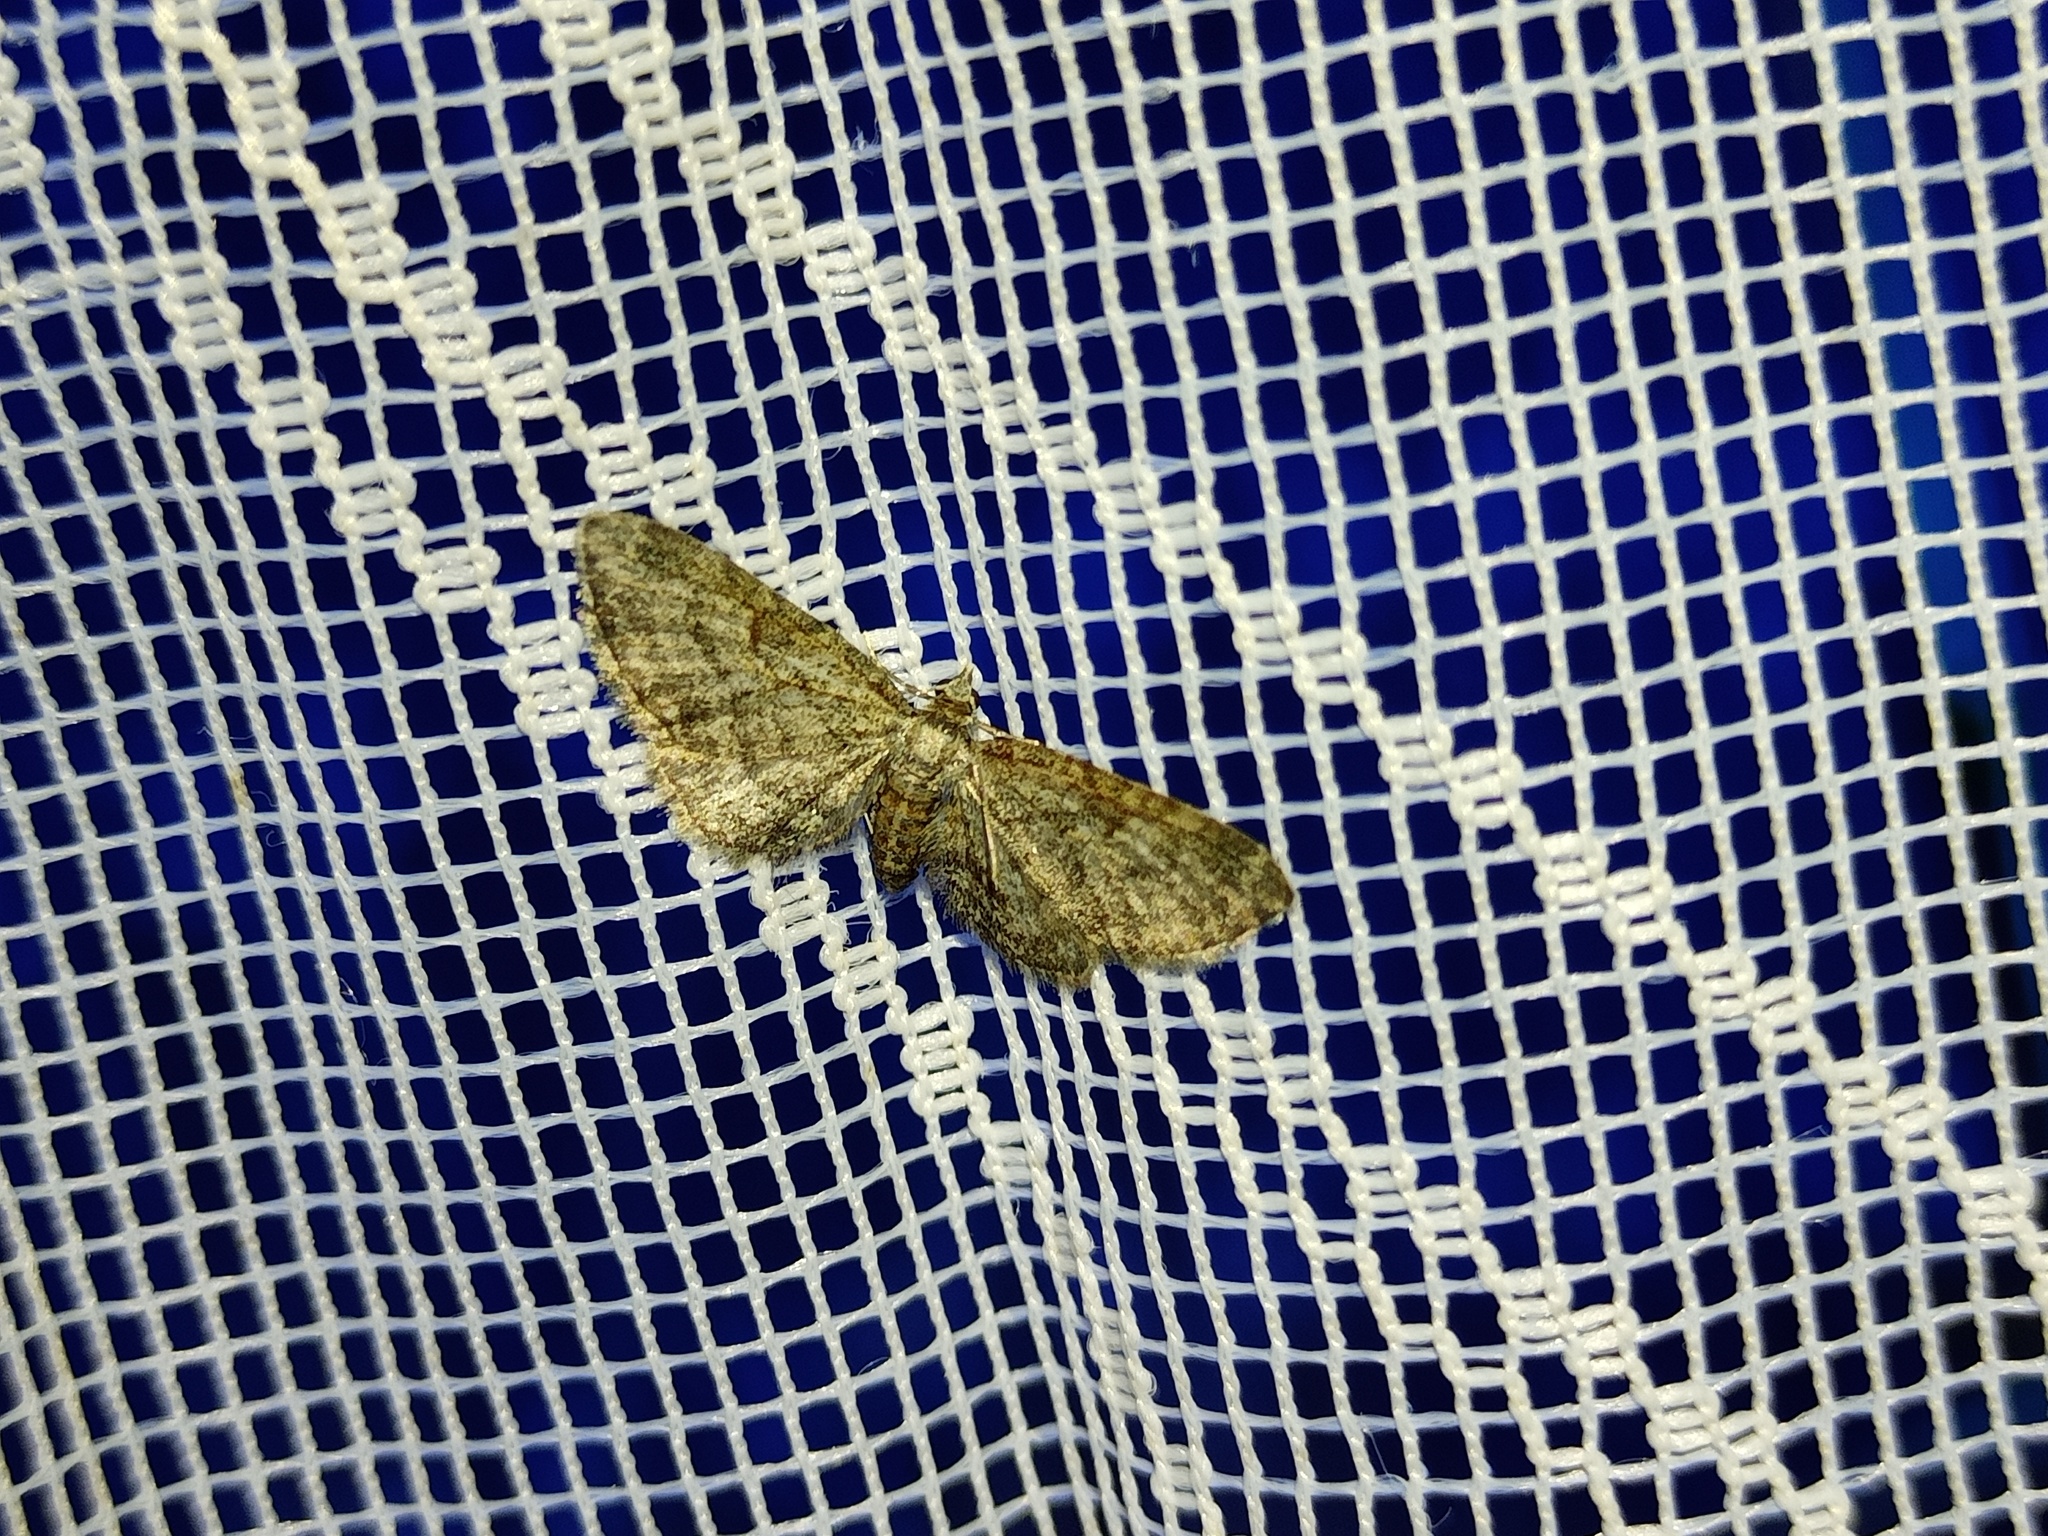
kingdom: Animalia
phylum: Arthropoda
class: Insecta
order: Lepidoptera
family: Geometridae
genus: Eupithecia
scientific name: Eupithecia haworthiata
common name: Haworth's pug
